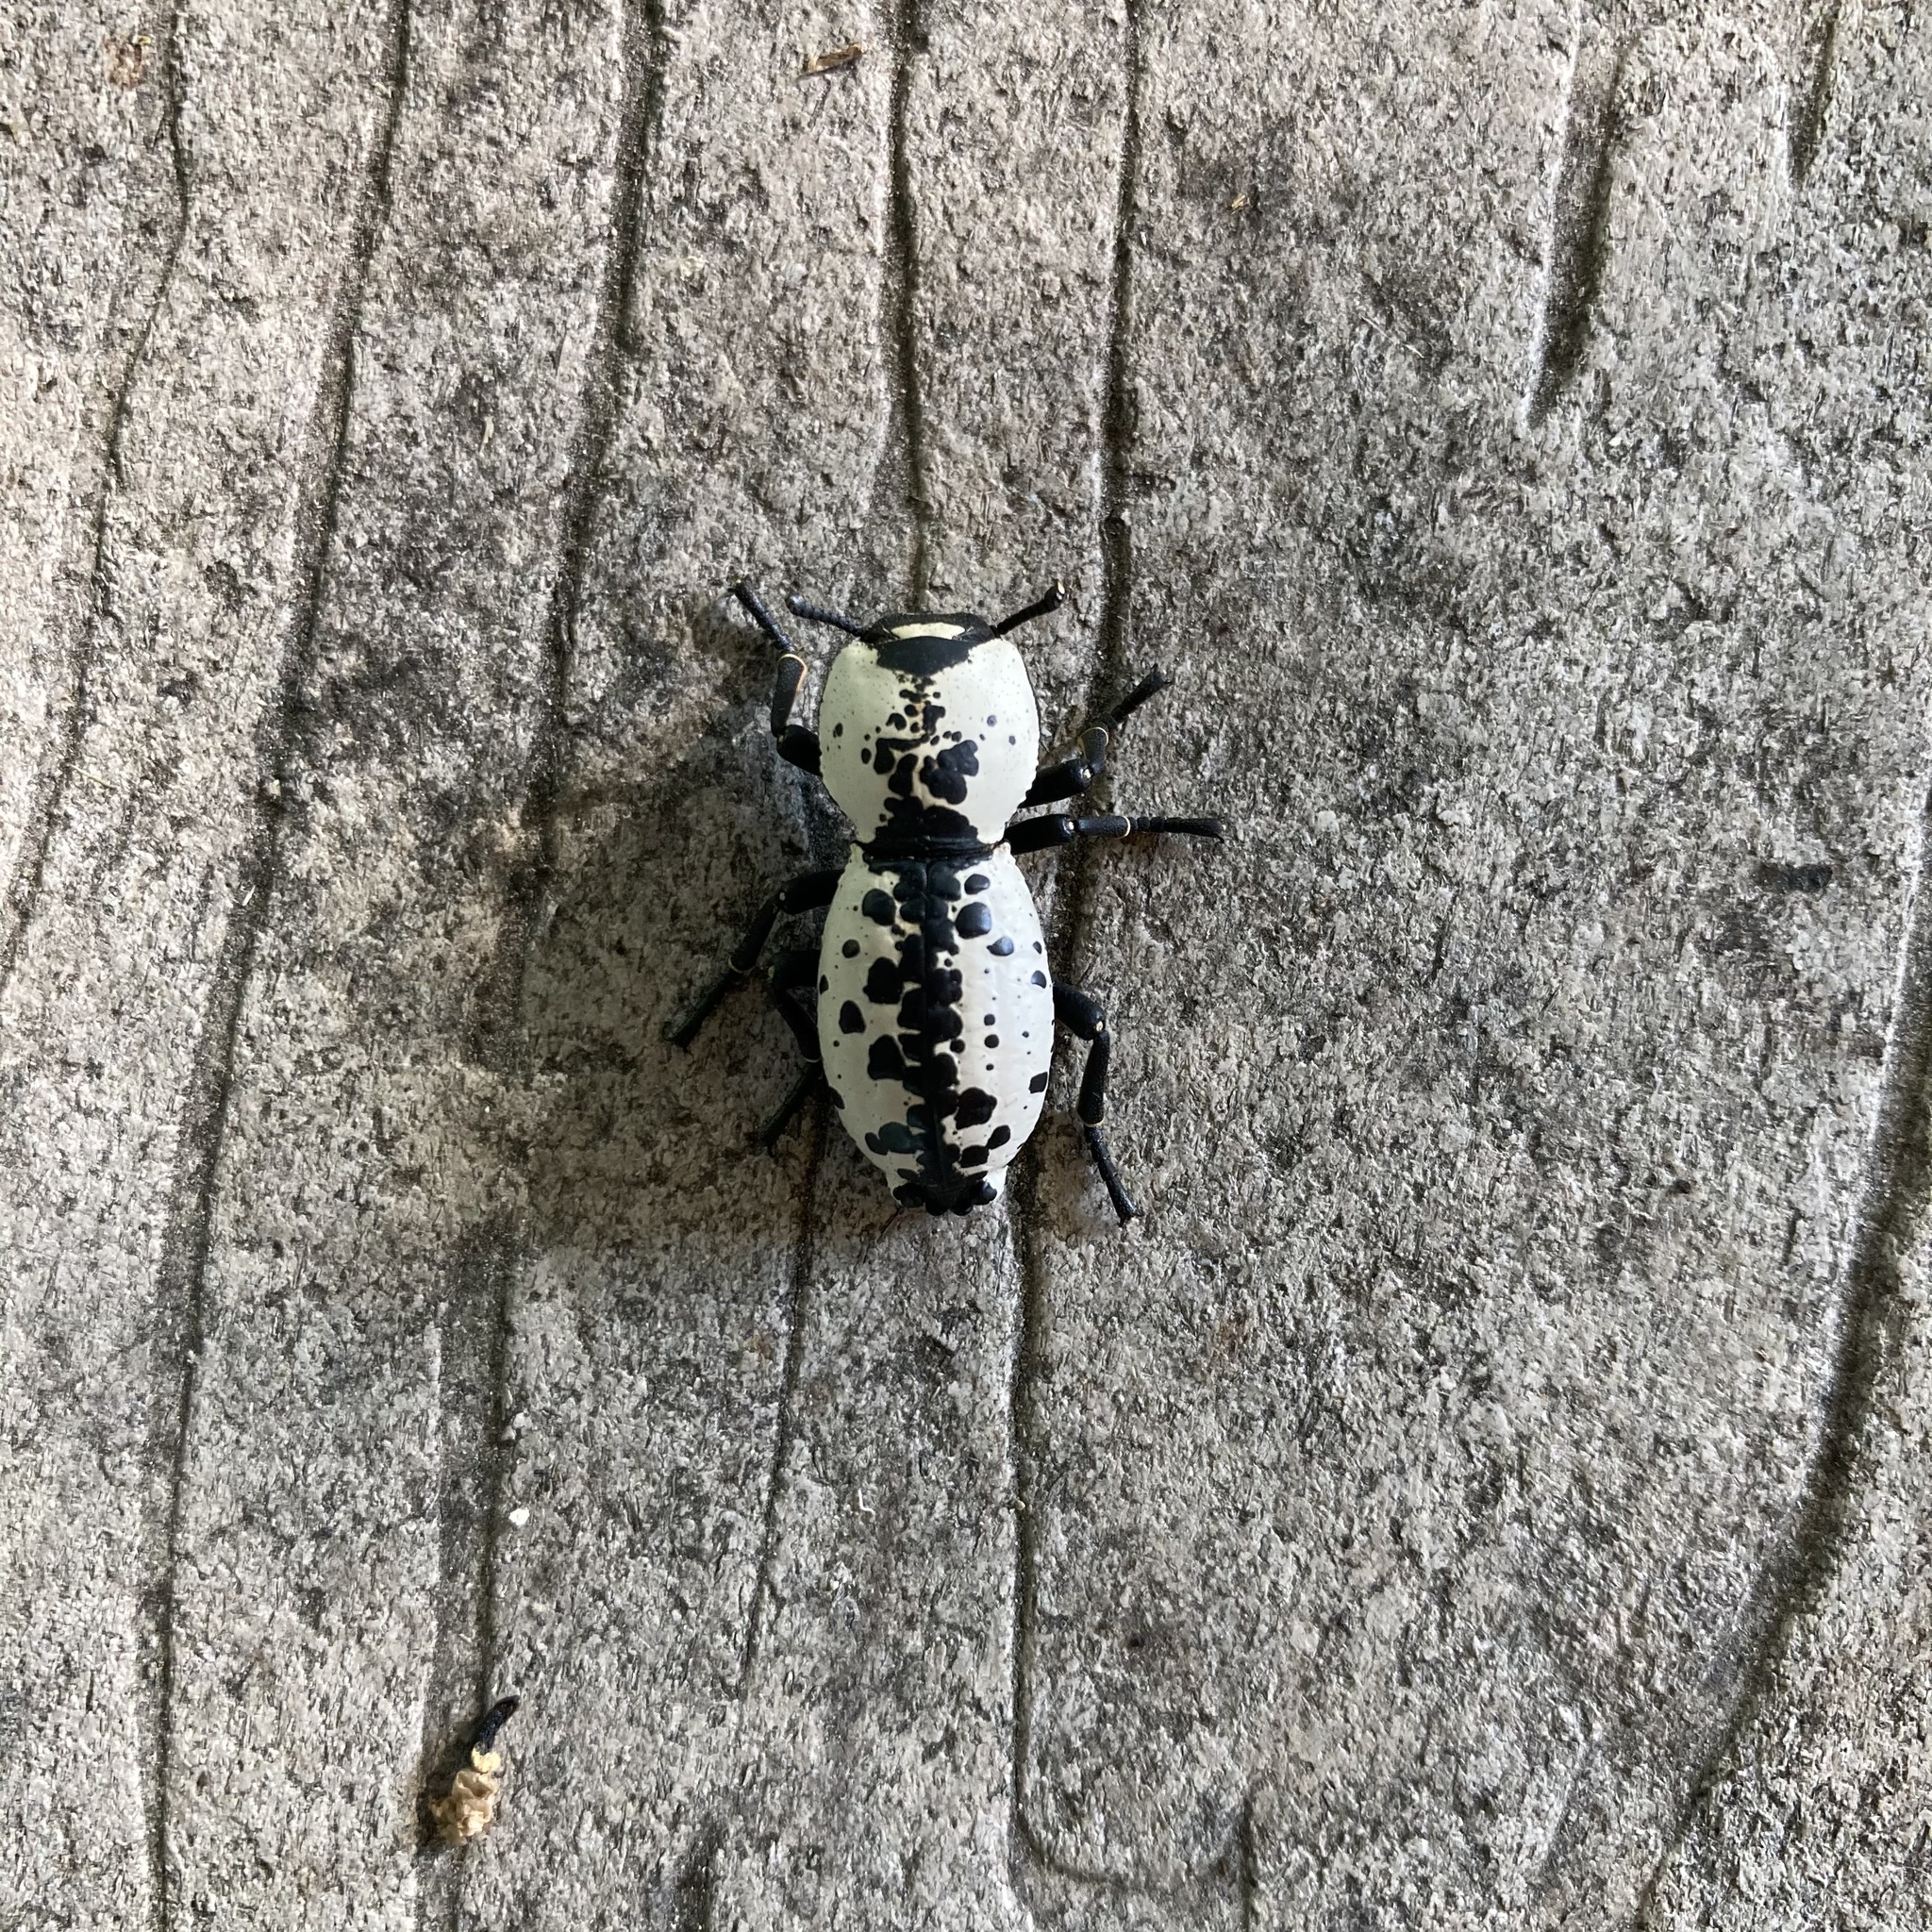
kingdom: Animalia
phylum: Arthropoda
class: Insecta
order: Coleoptera
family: Zopheridae
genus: Zopherus
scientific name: Zopherus nodulosus
